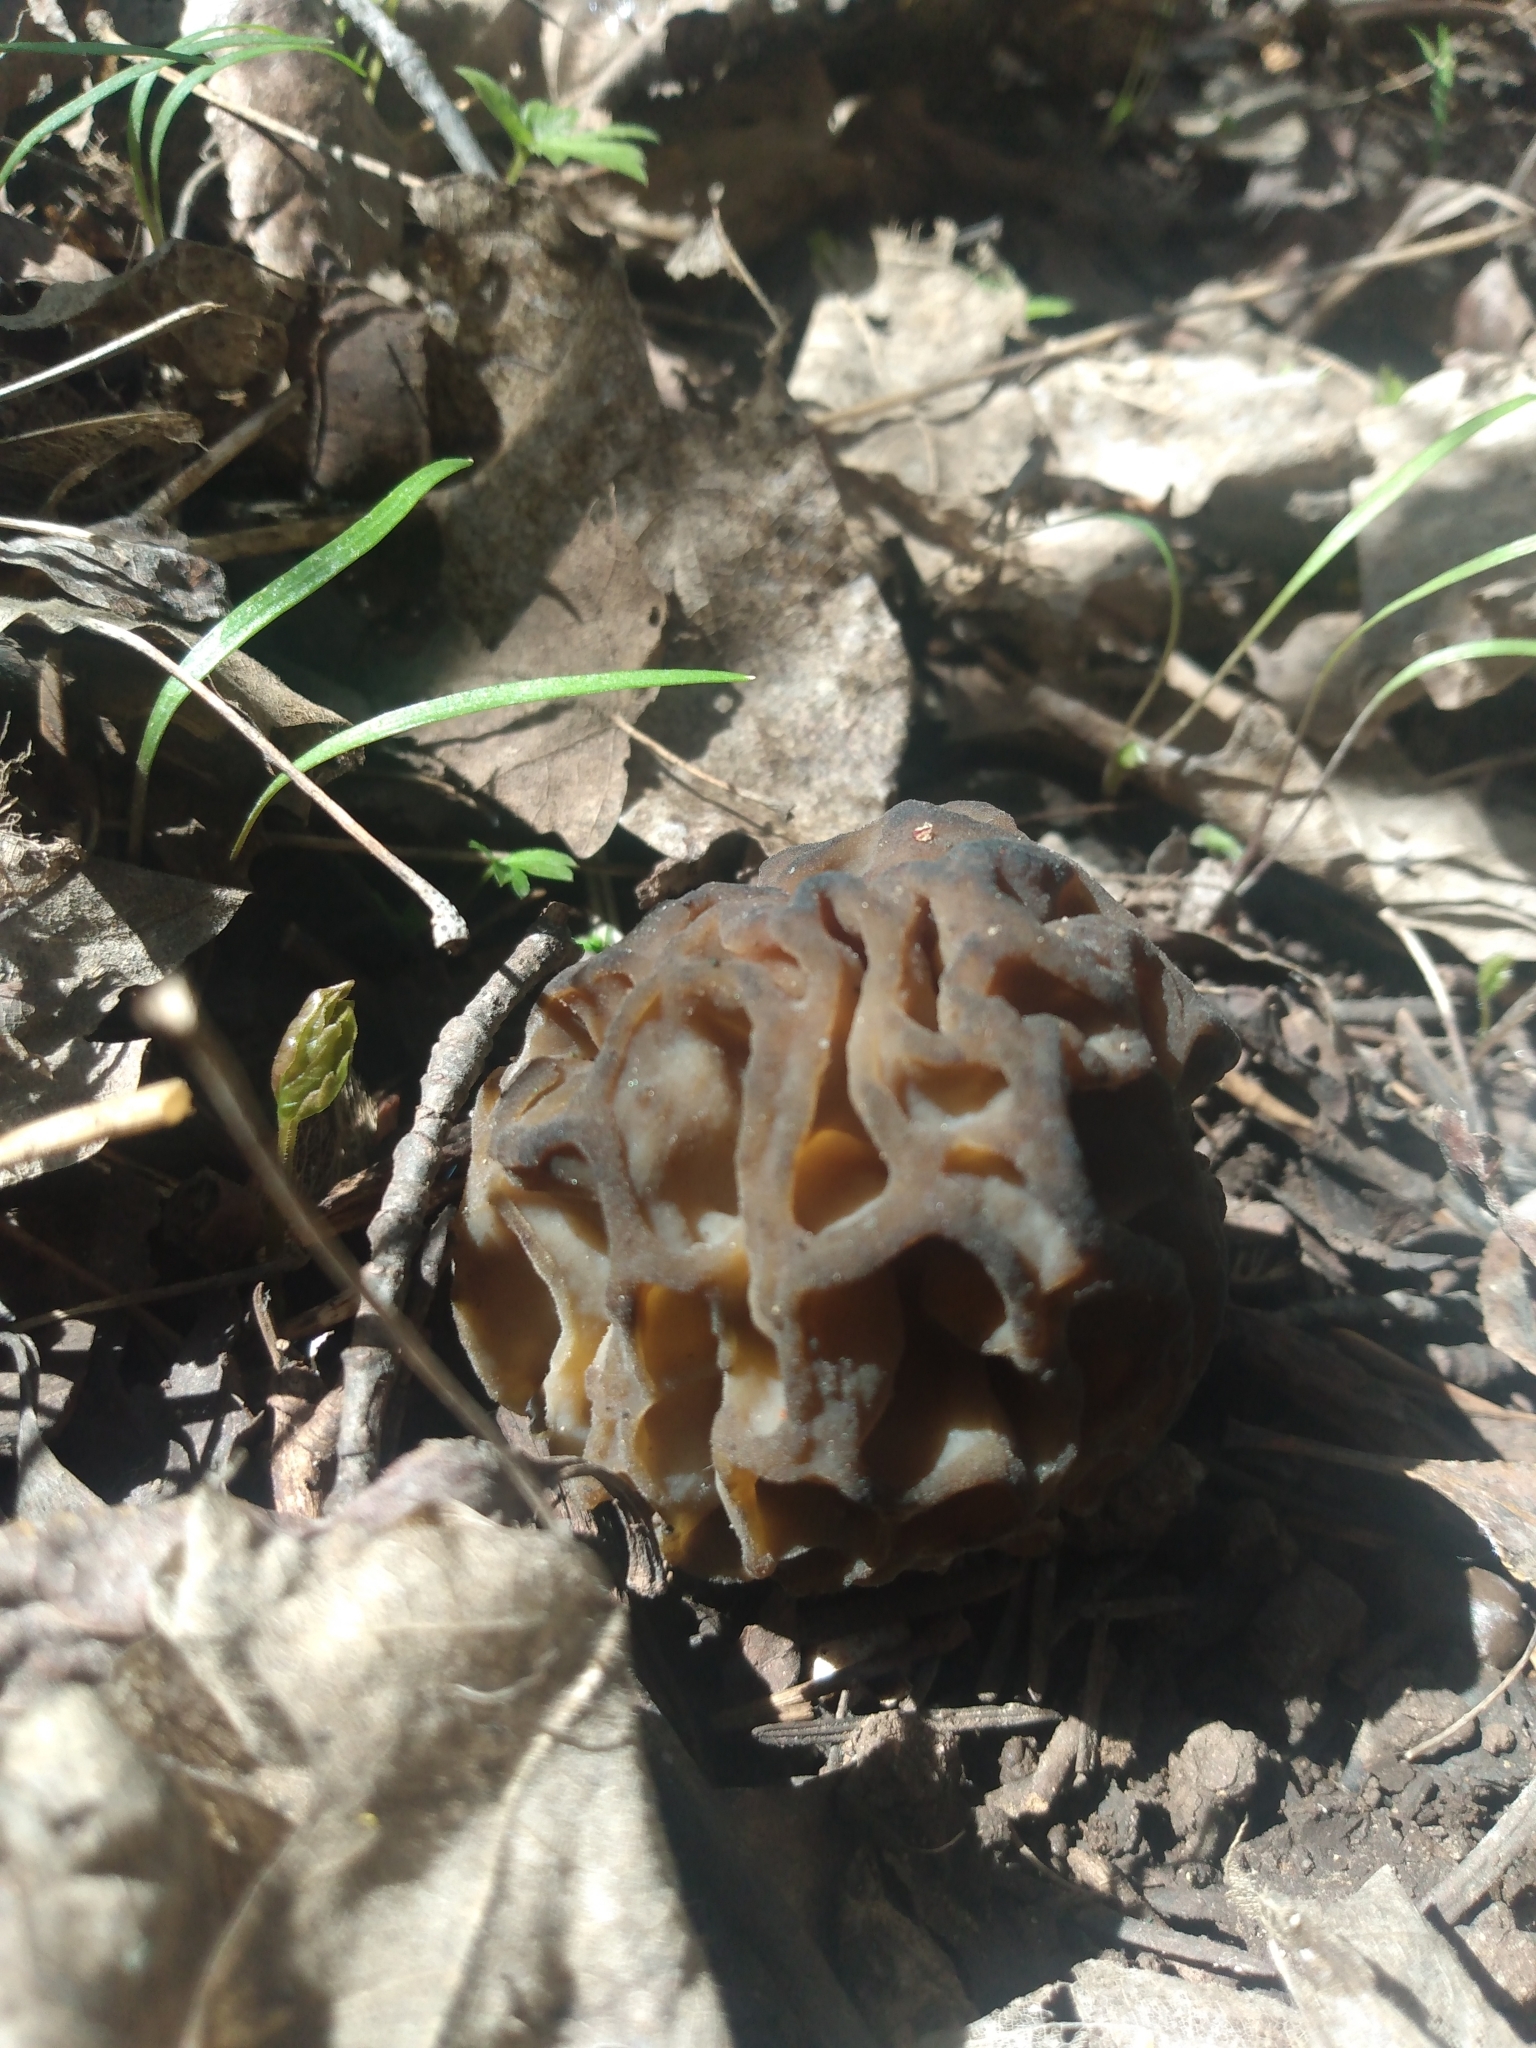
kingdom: Fungi
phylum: Ascomycota
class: Pezizomycetes
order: Pezizales
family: Morchellaceae
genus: Morchella
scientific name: Morchella snyderi
